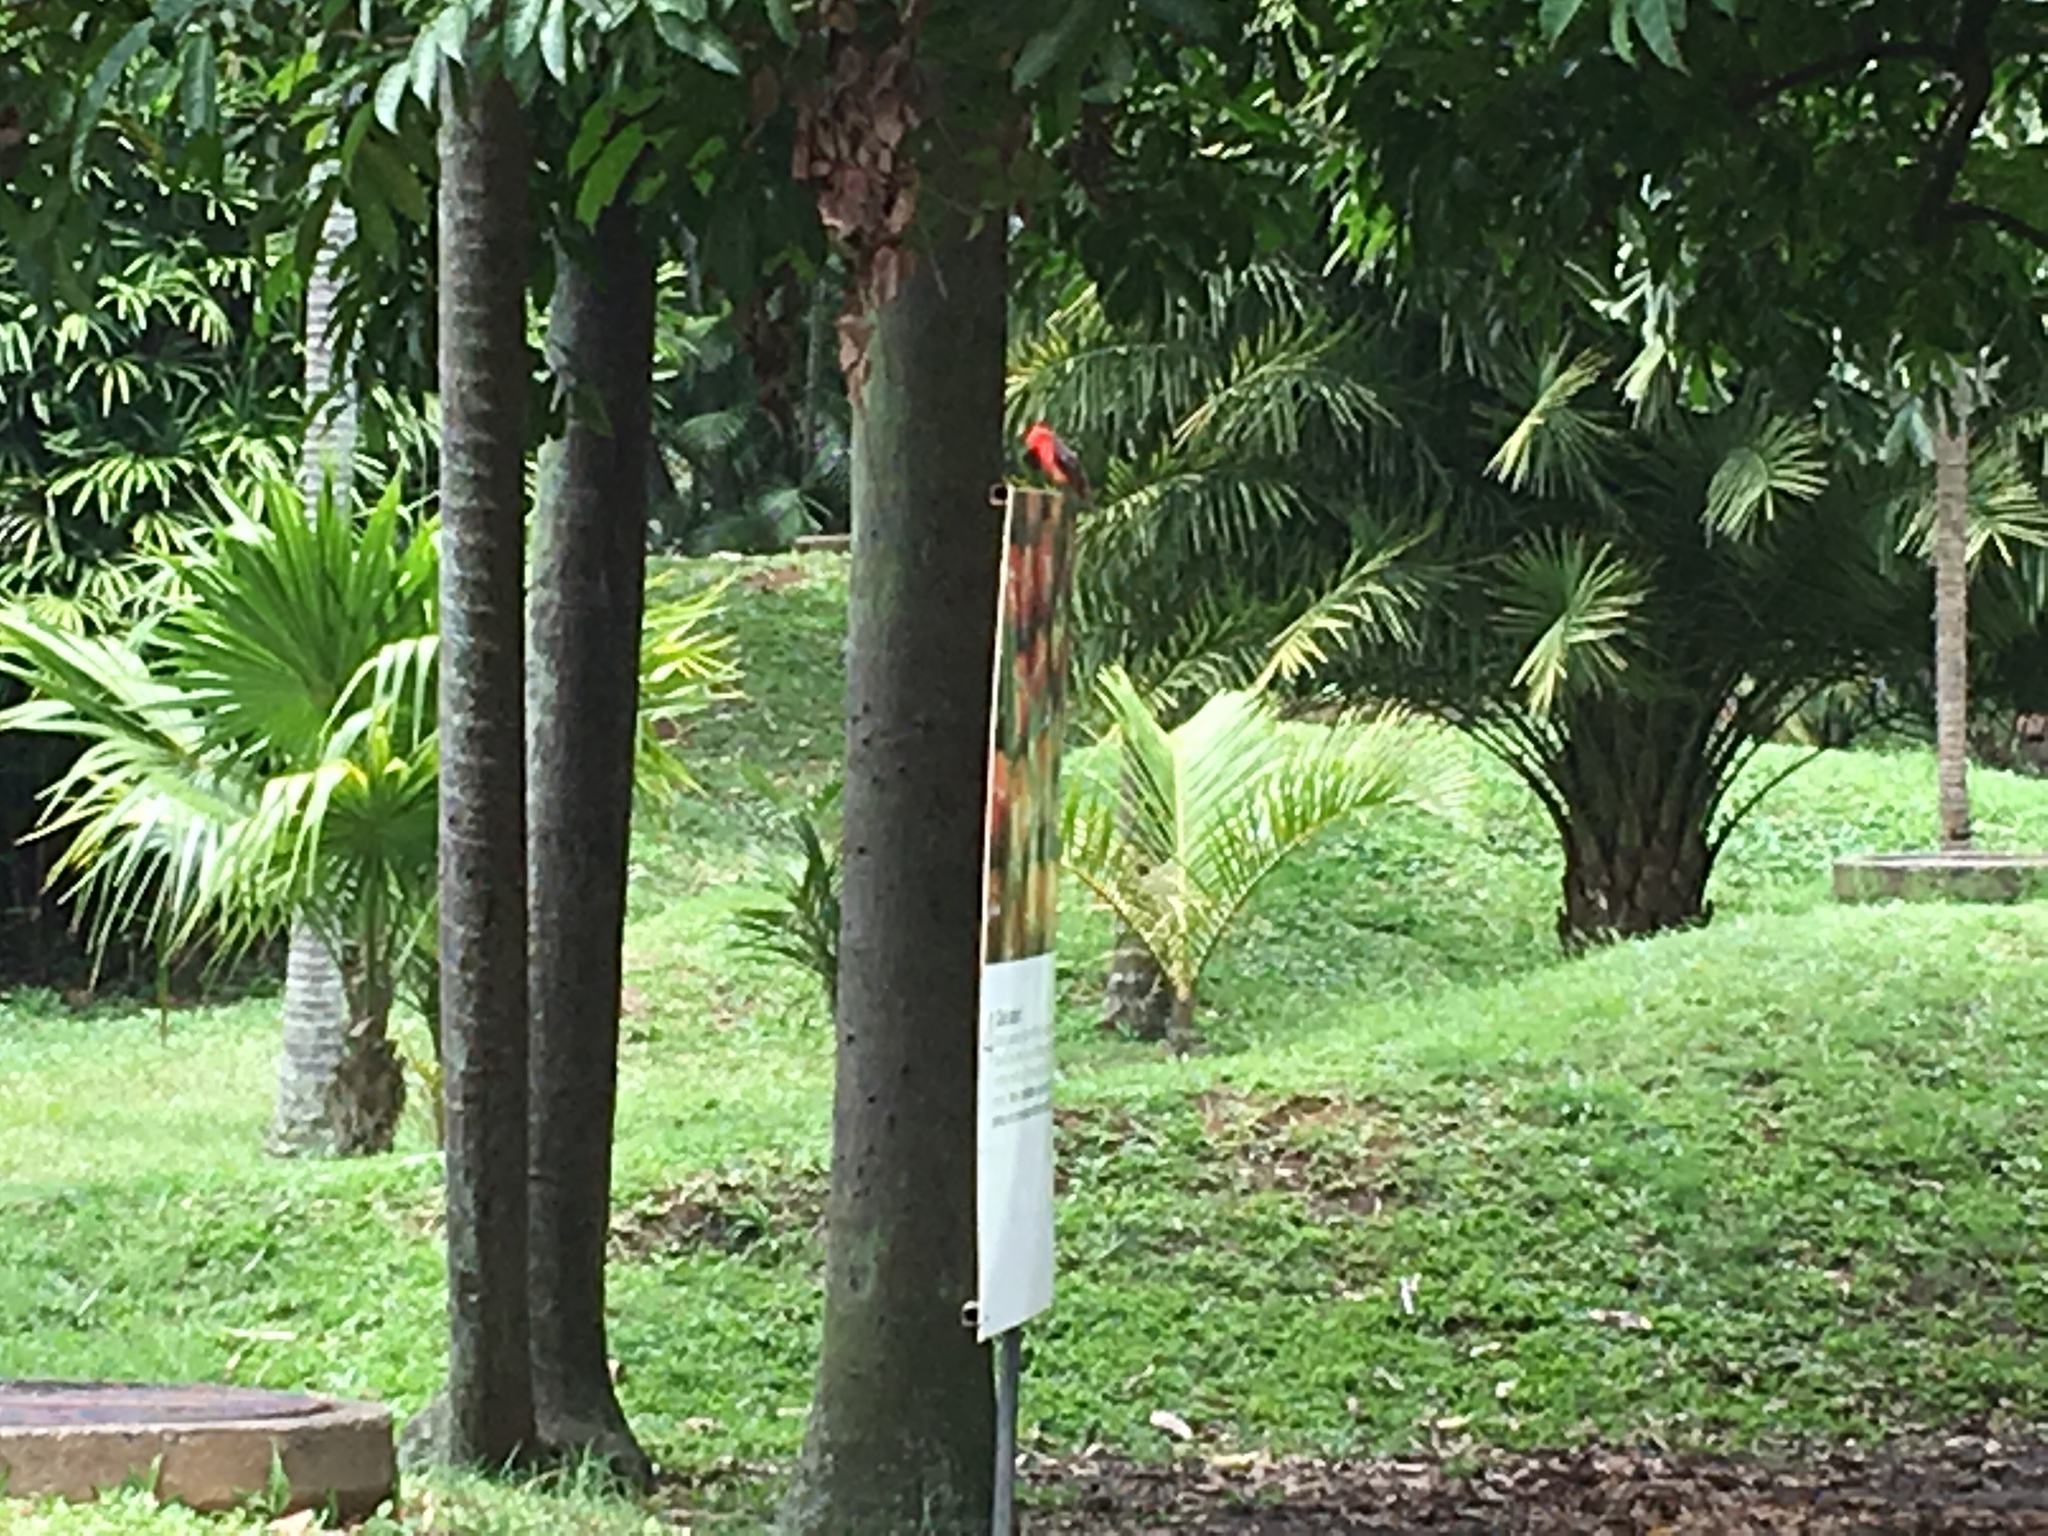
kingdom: Animalia
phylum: Chordata
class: Aves
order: Passeriformes
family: Tyrannidae
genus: Pyrocephalus
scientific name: Pyrocephalus rubinus
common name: Vermilion flycatcher
